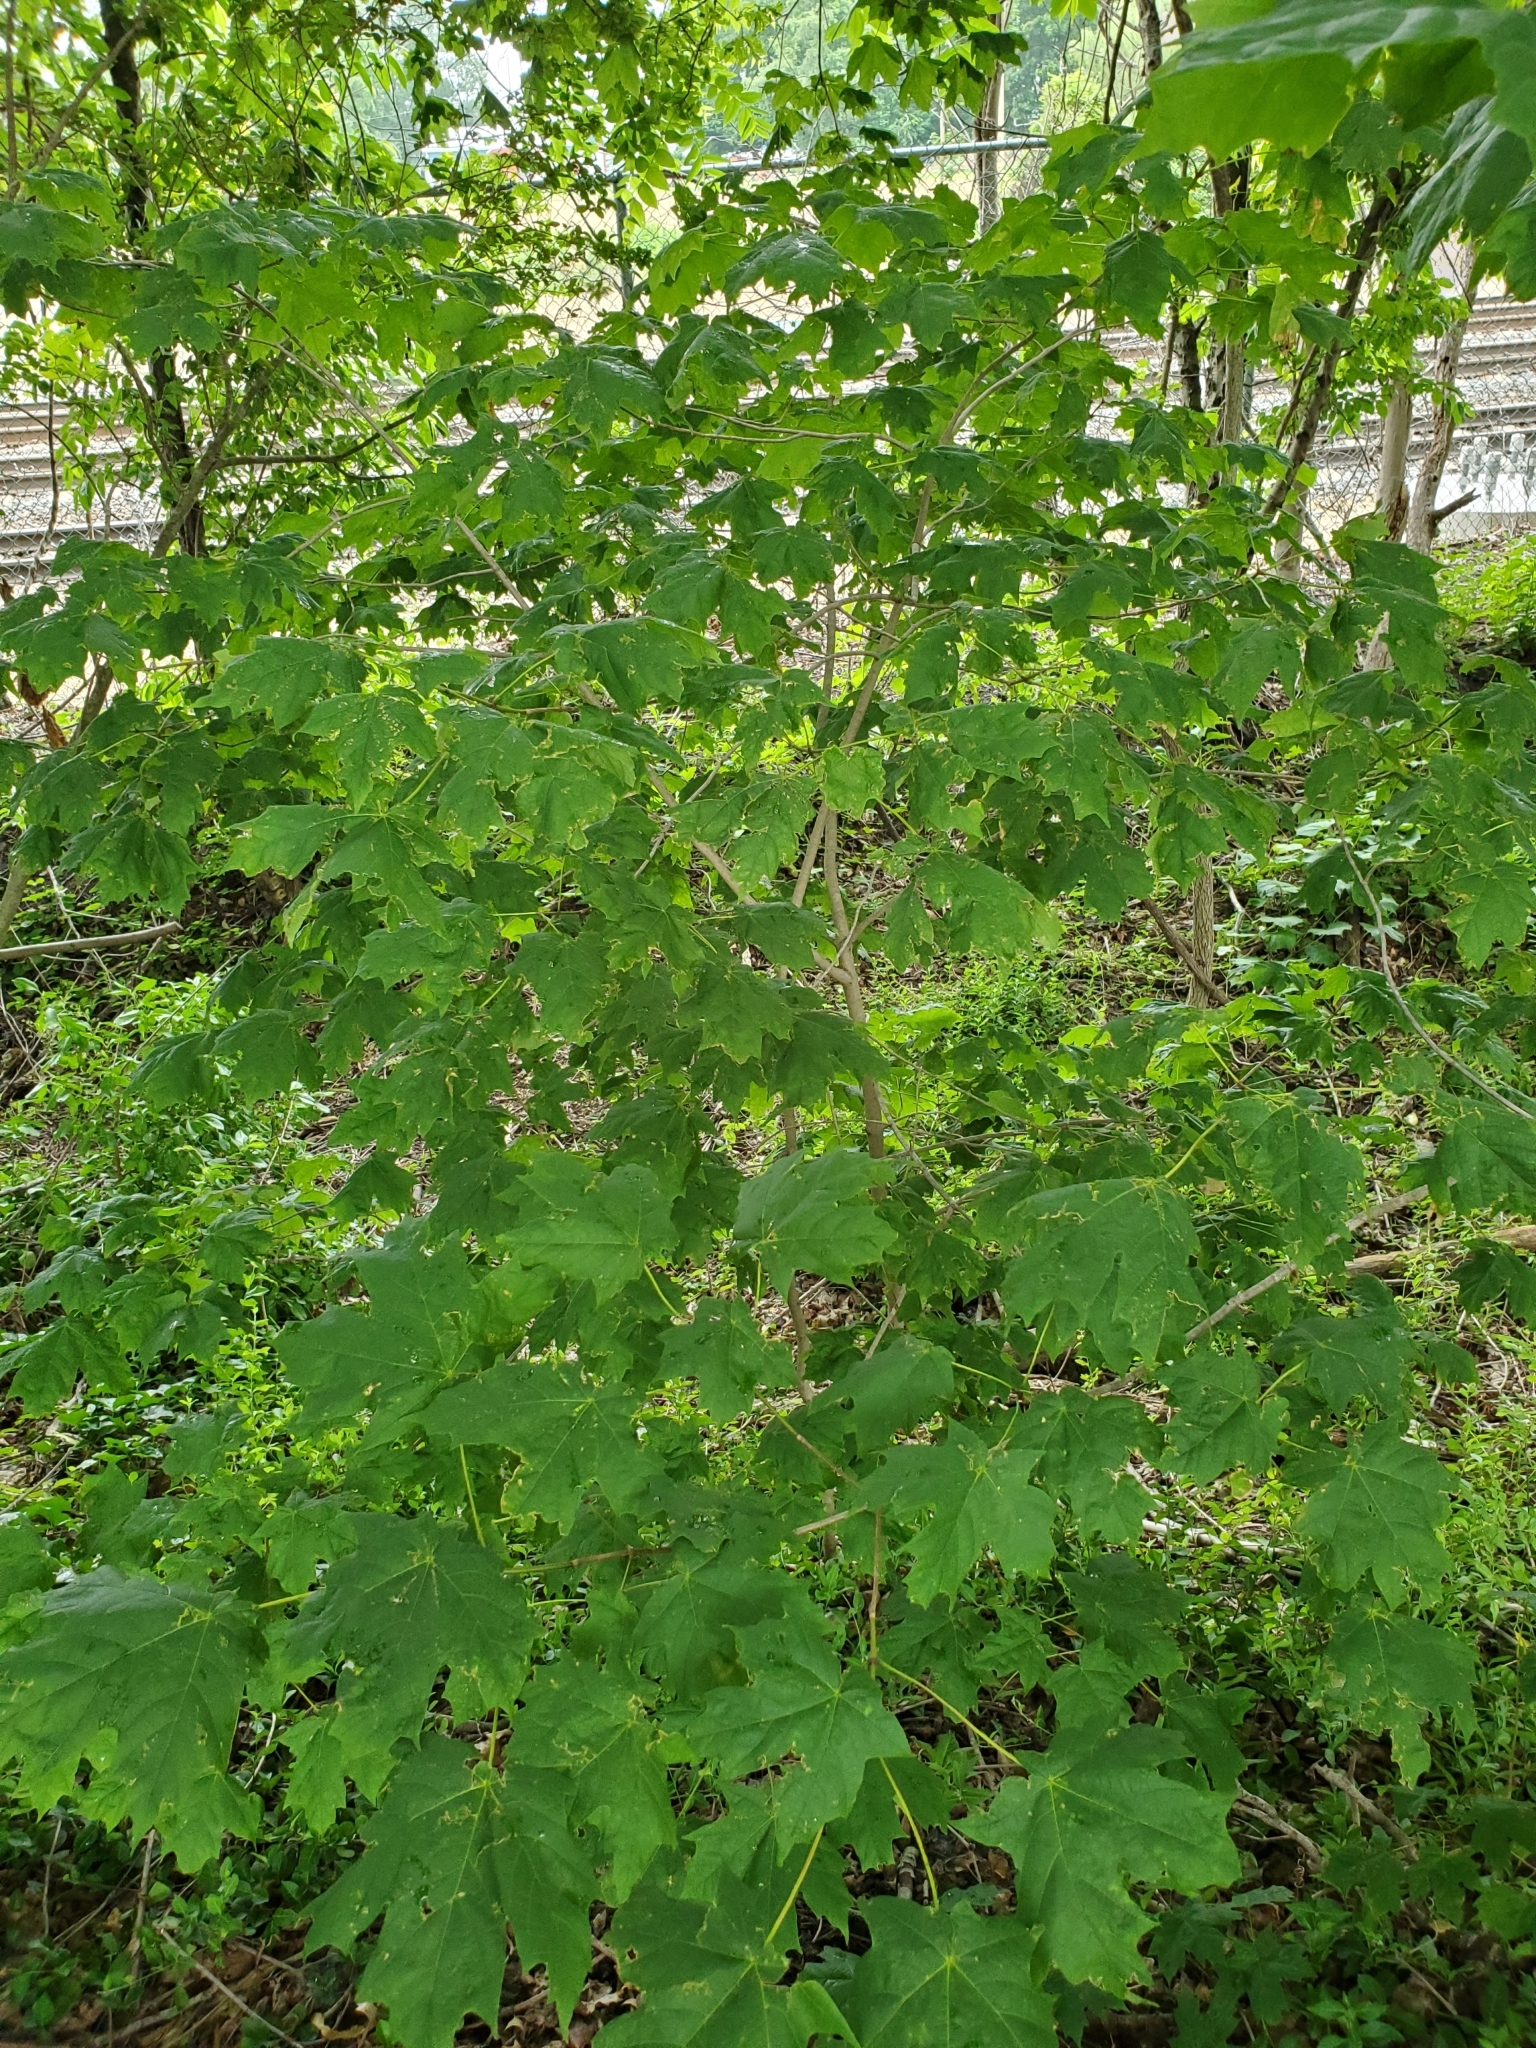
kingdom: Plantae
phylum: Tracheophyta
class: Magnoliopsida
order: Sapindales
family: Sapindaceae
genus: Acer
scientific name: Acer saccharum
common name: Sugar maple
